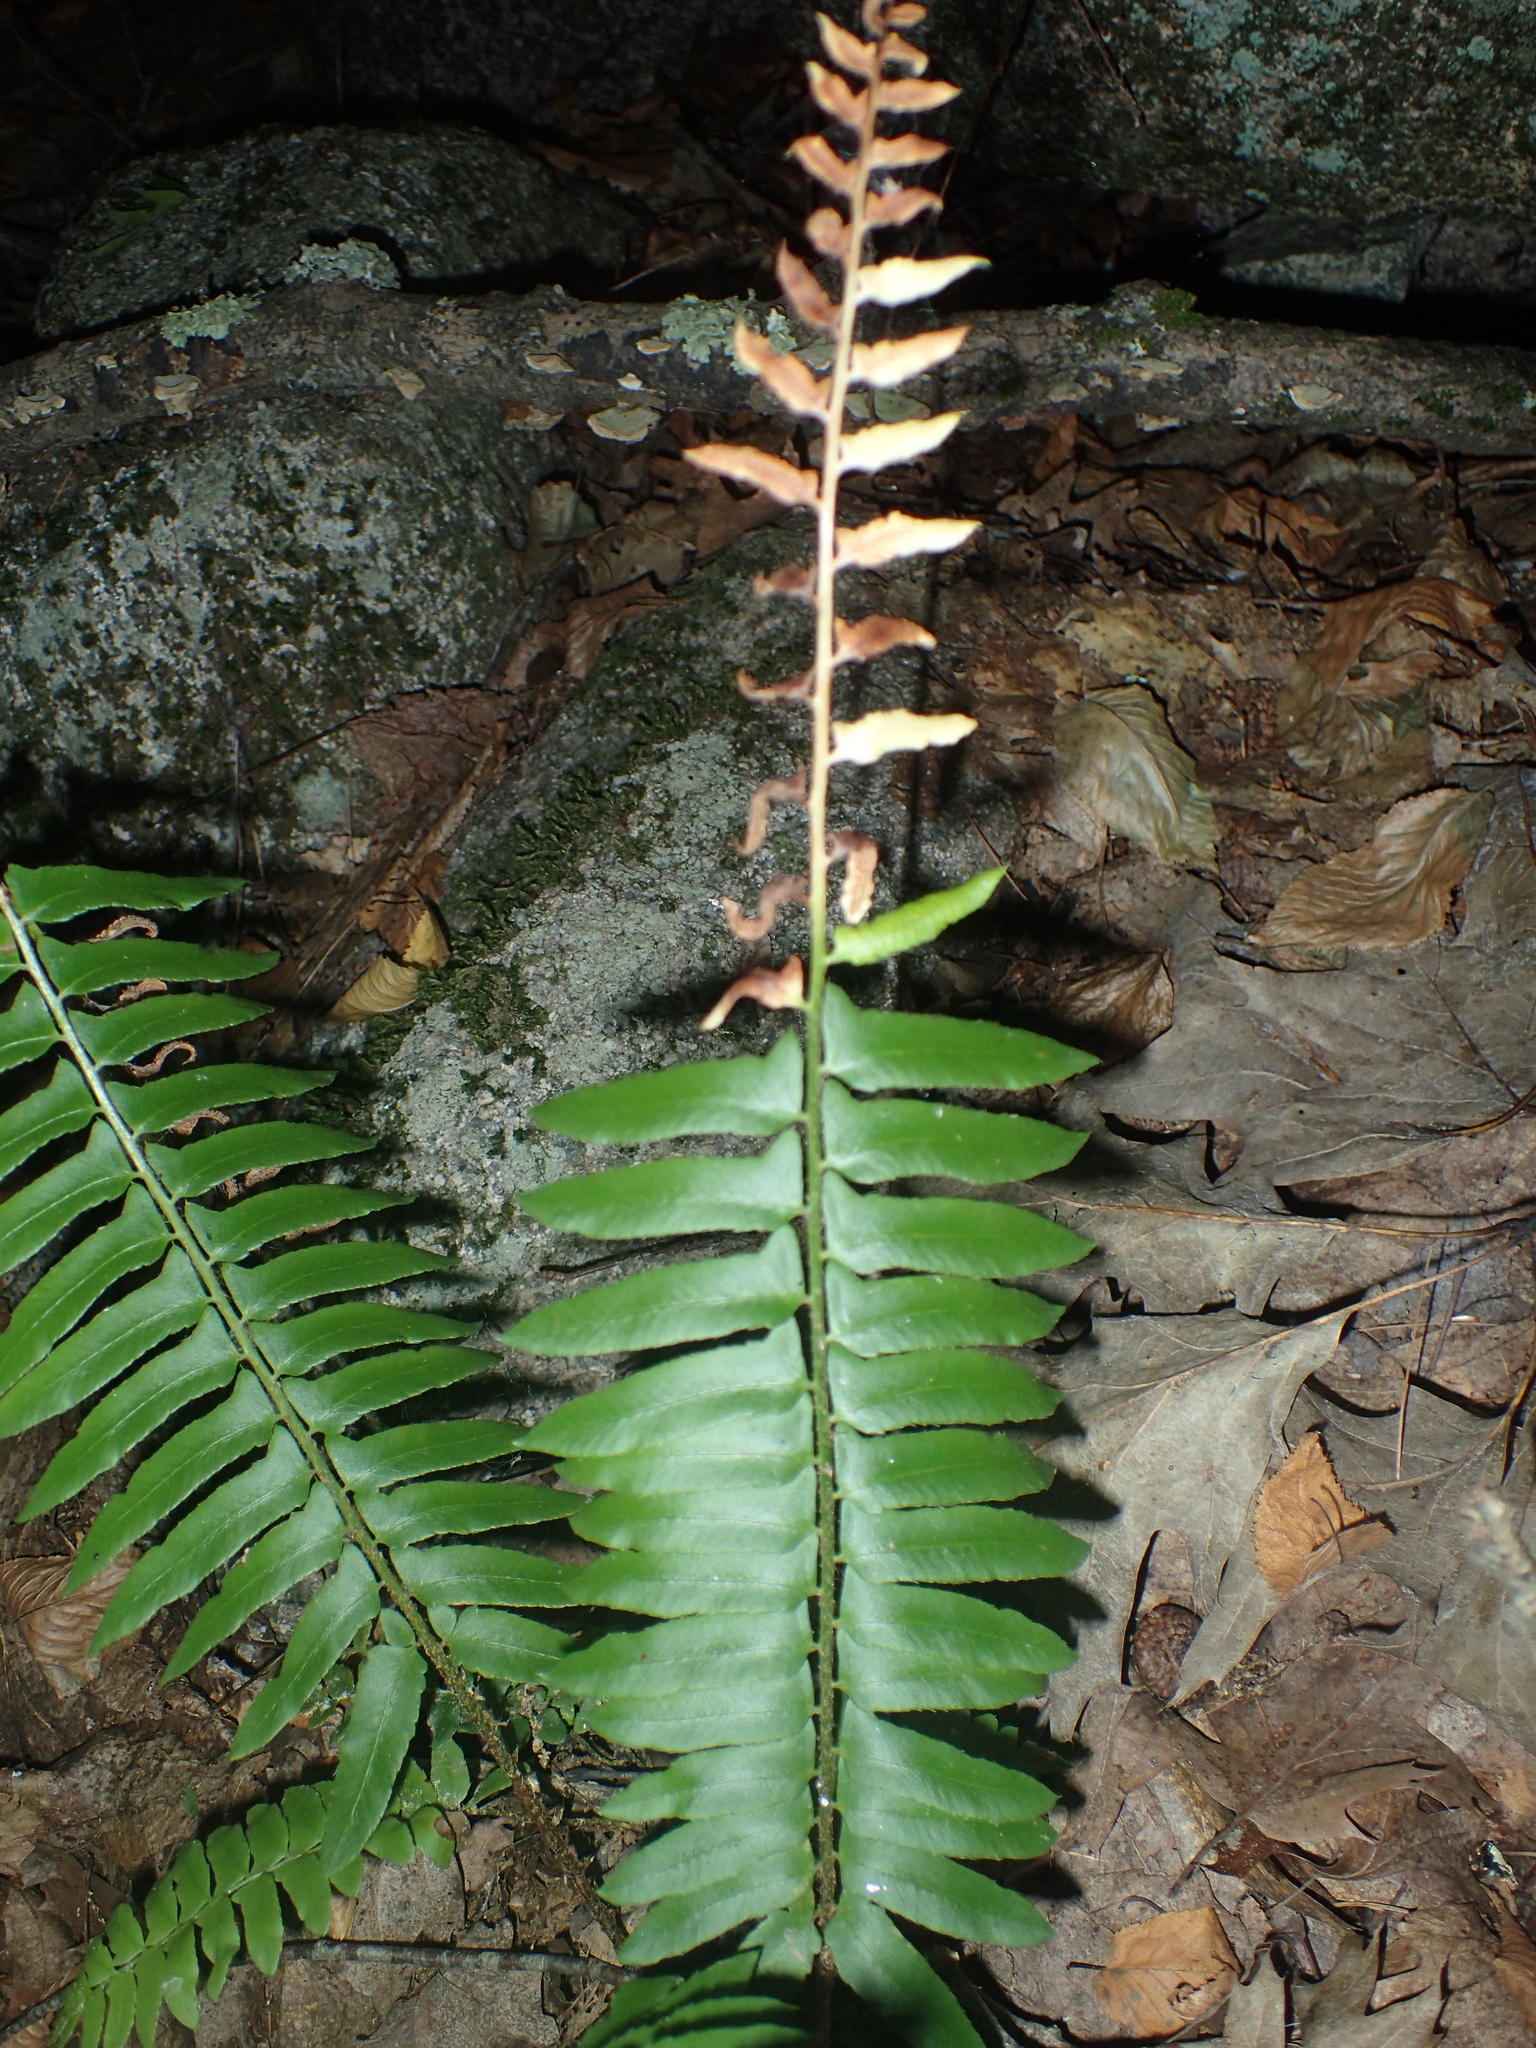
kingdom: Plantae
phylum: Tracheophyta
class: Polypodiopsida
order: Polypodiales
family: Dryopteridaceae
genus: Polystichum
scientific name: Polystichum acrostichoides
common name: Christmas fern
